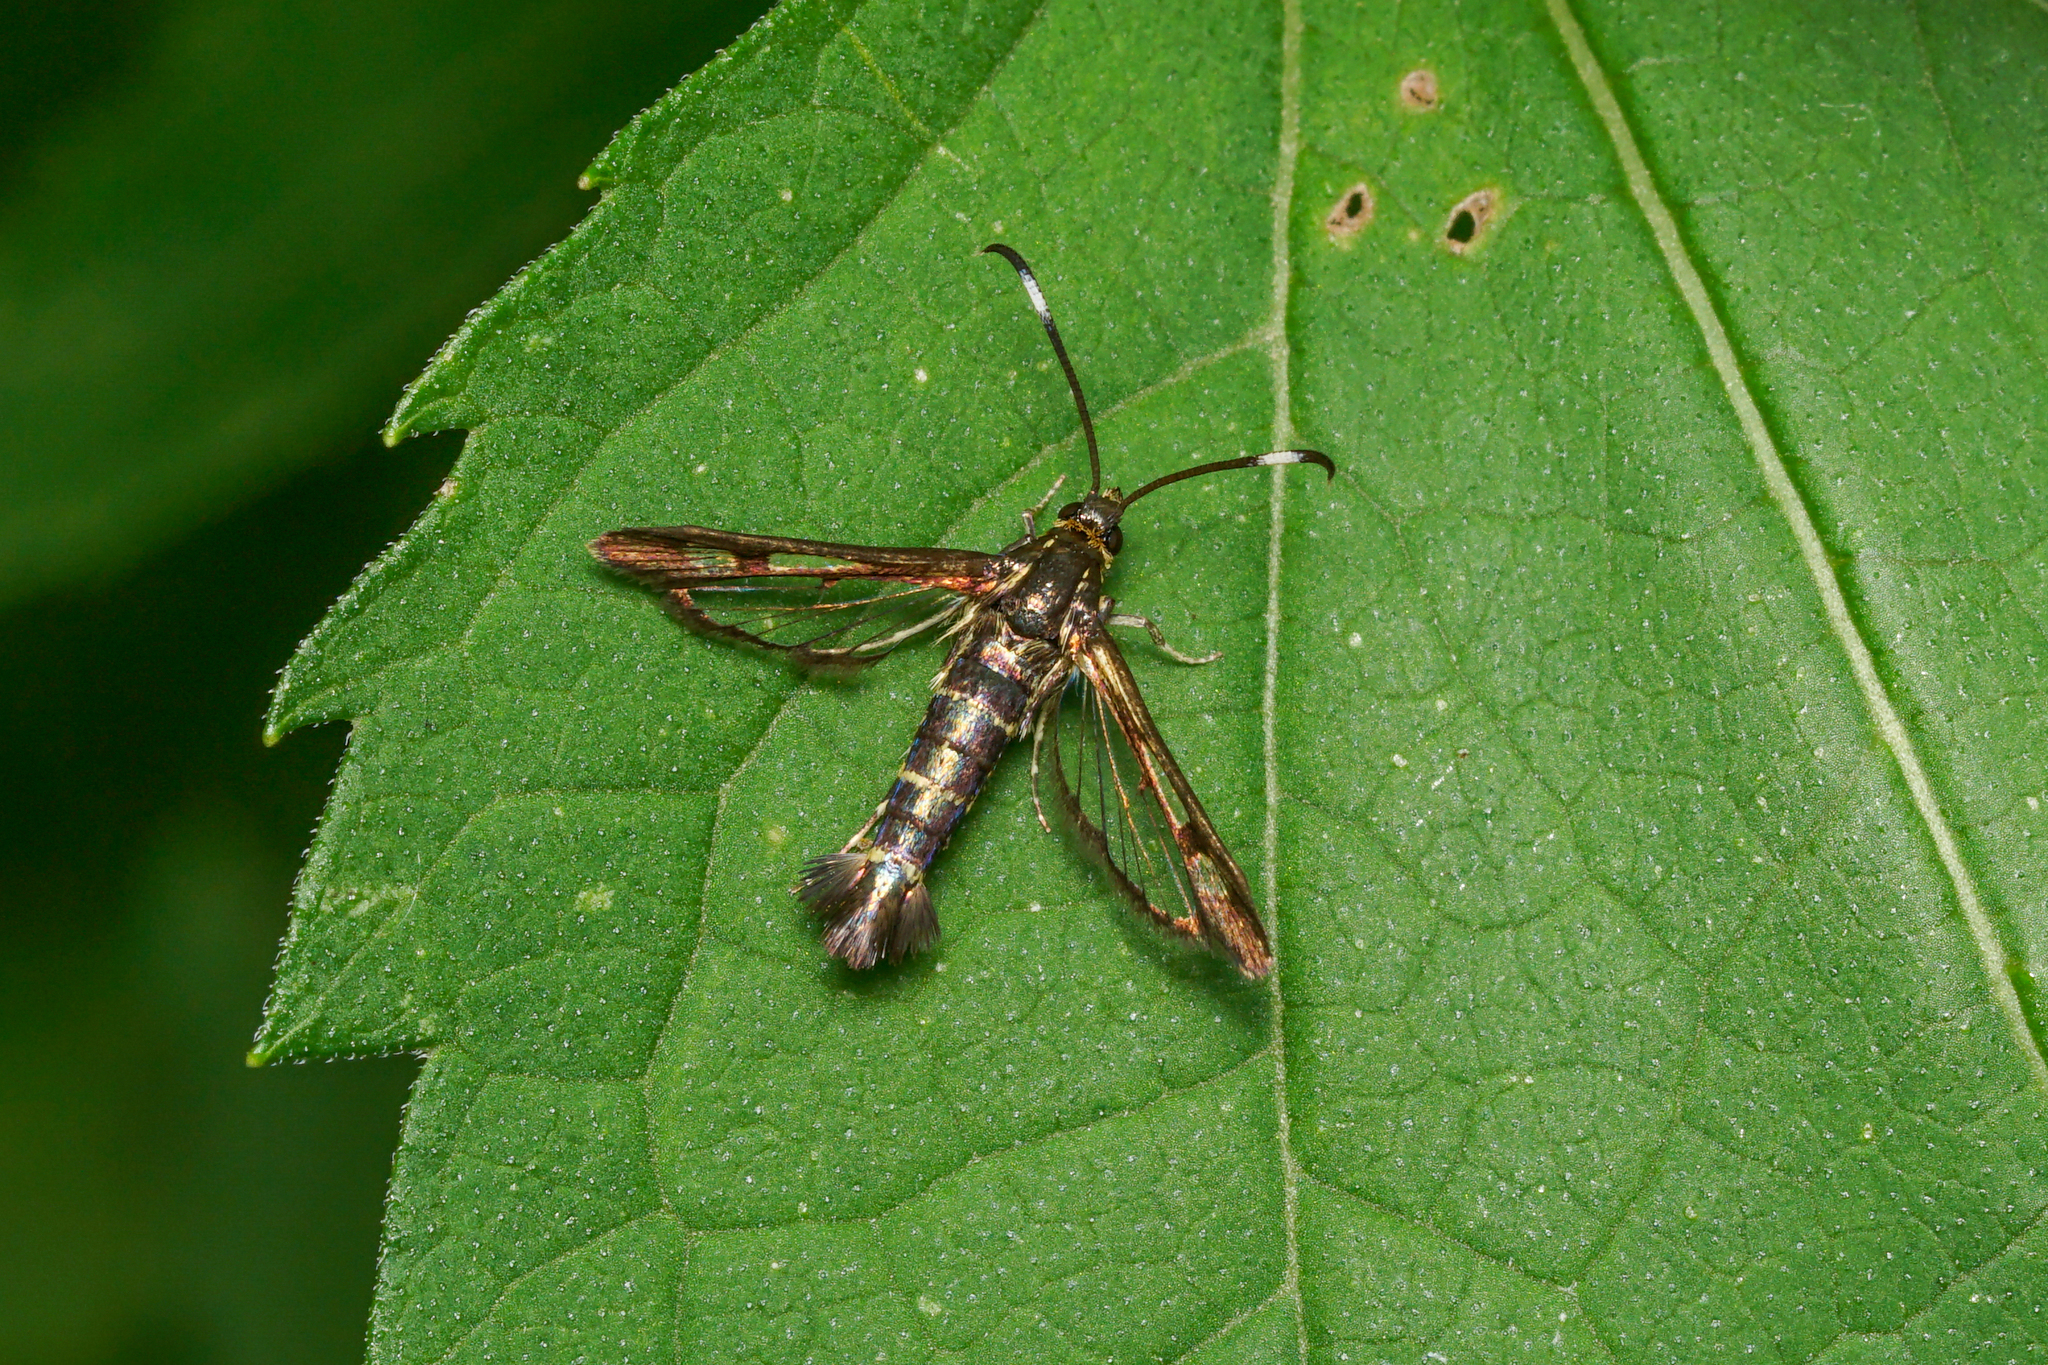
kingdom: Animalia
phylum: Arthropoda
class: Insecta
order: Lepidoptera
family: Sesiidae
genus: Carmenta
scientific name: Carmenta ithacae
